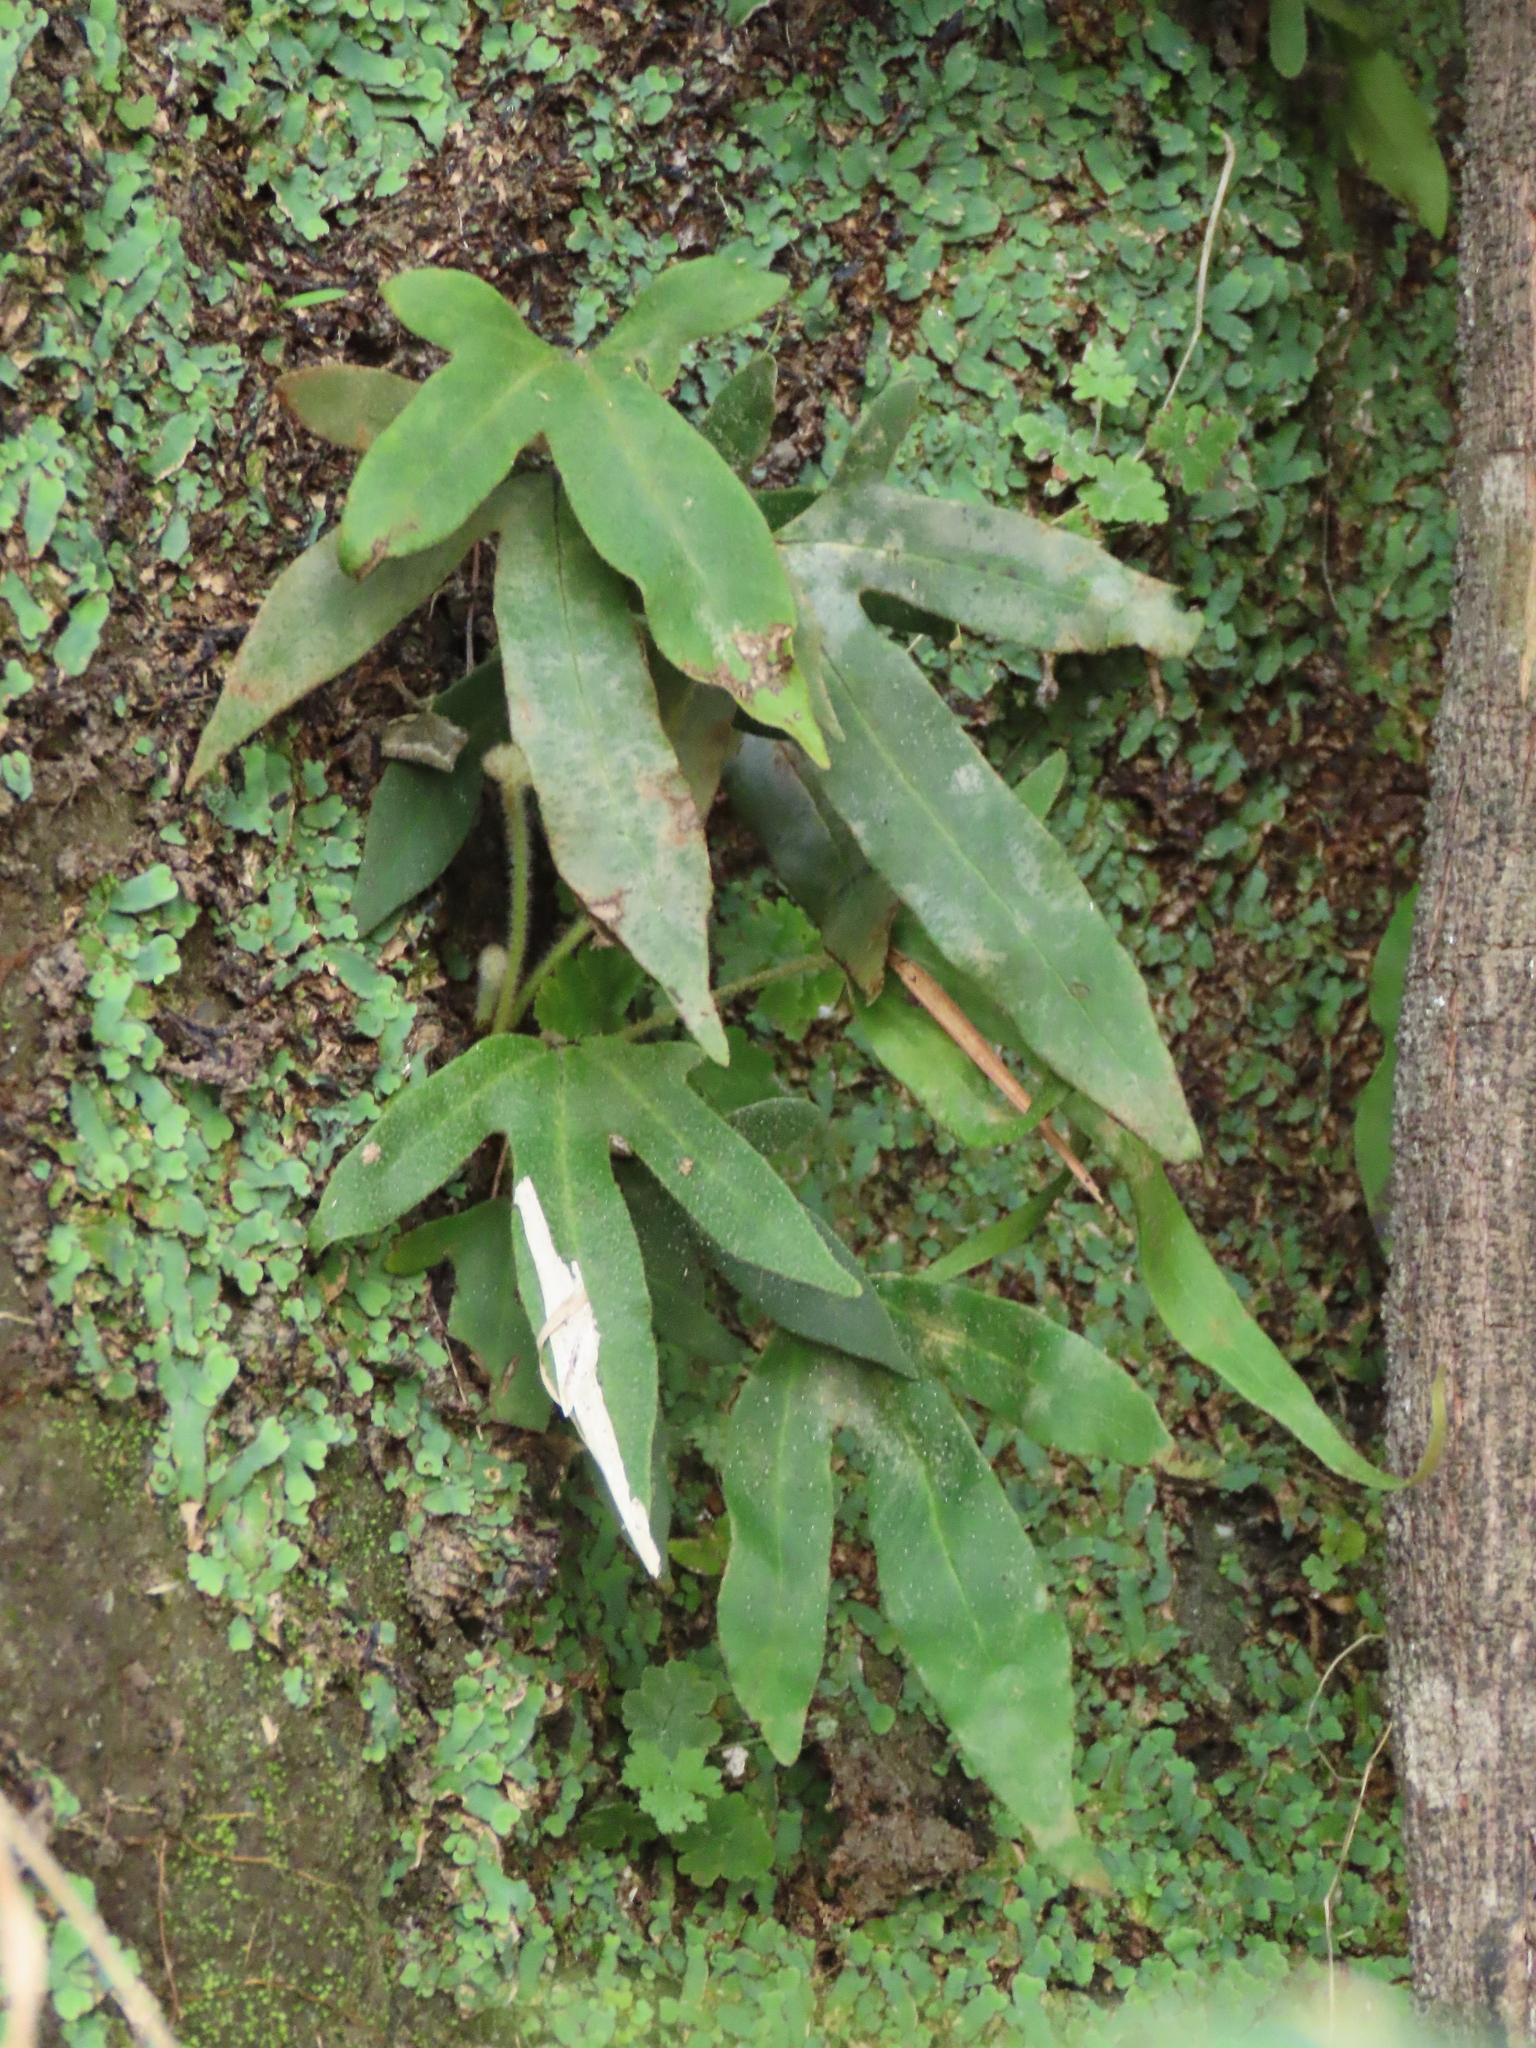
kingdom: Plantae
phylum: Tracheophyta
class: Polypodiopsida
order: Polypodiales
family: Polypodiaceae
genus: Pyrrosia
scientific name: Pyrrosia polydactyla
